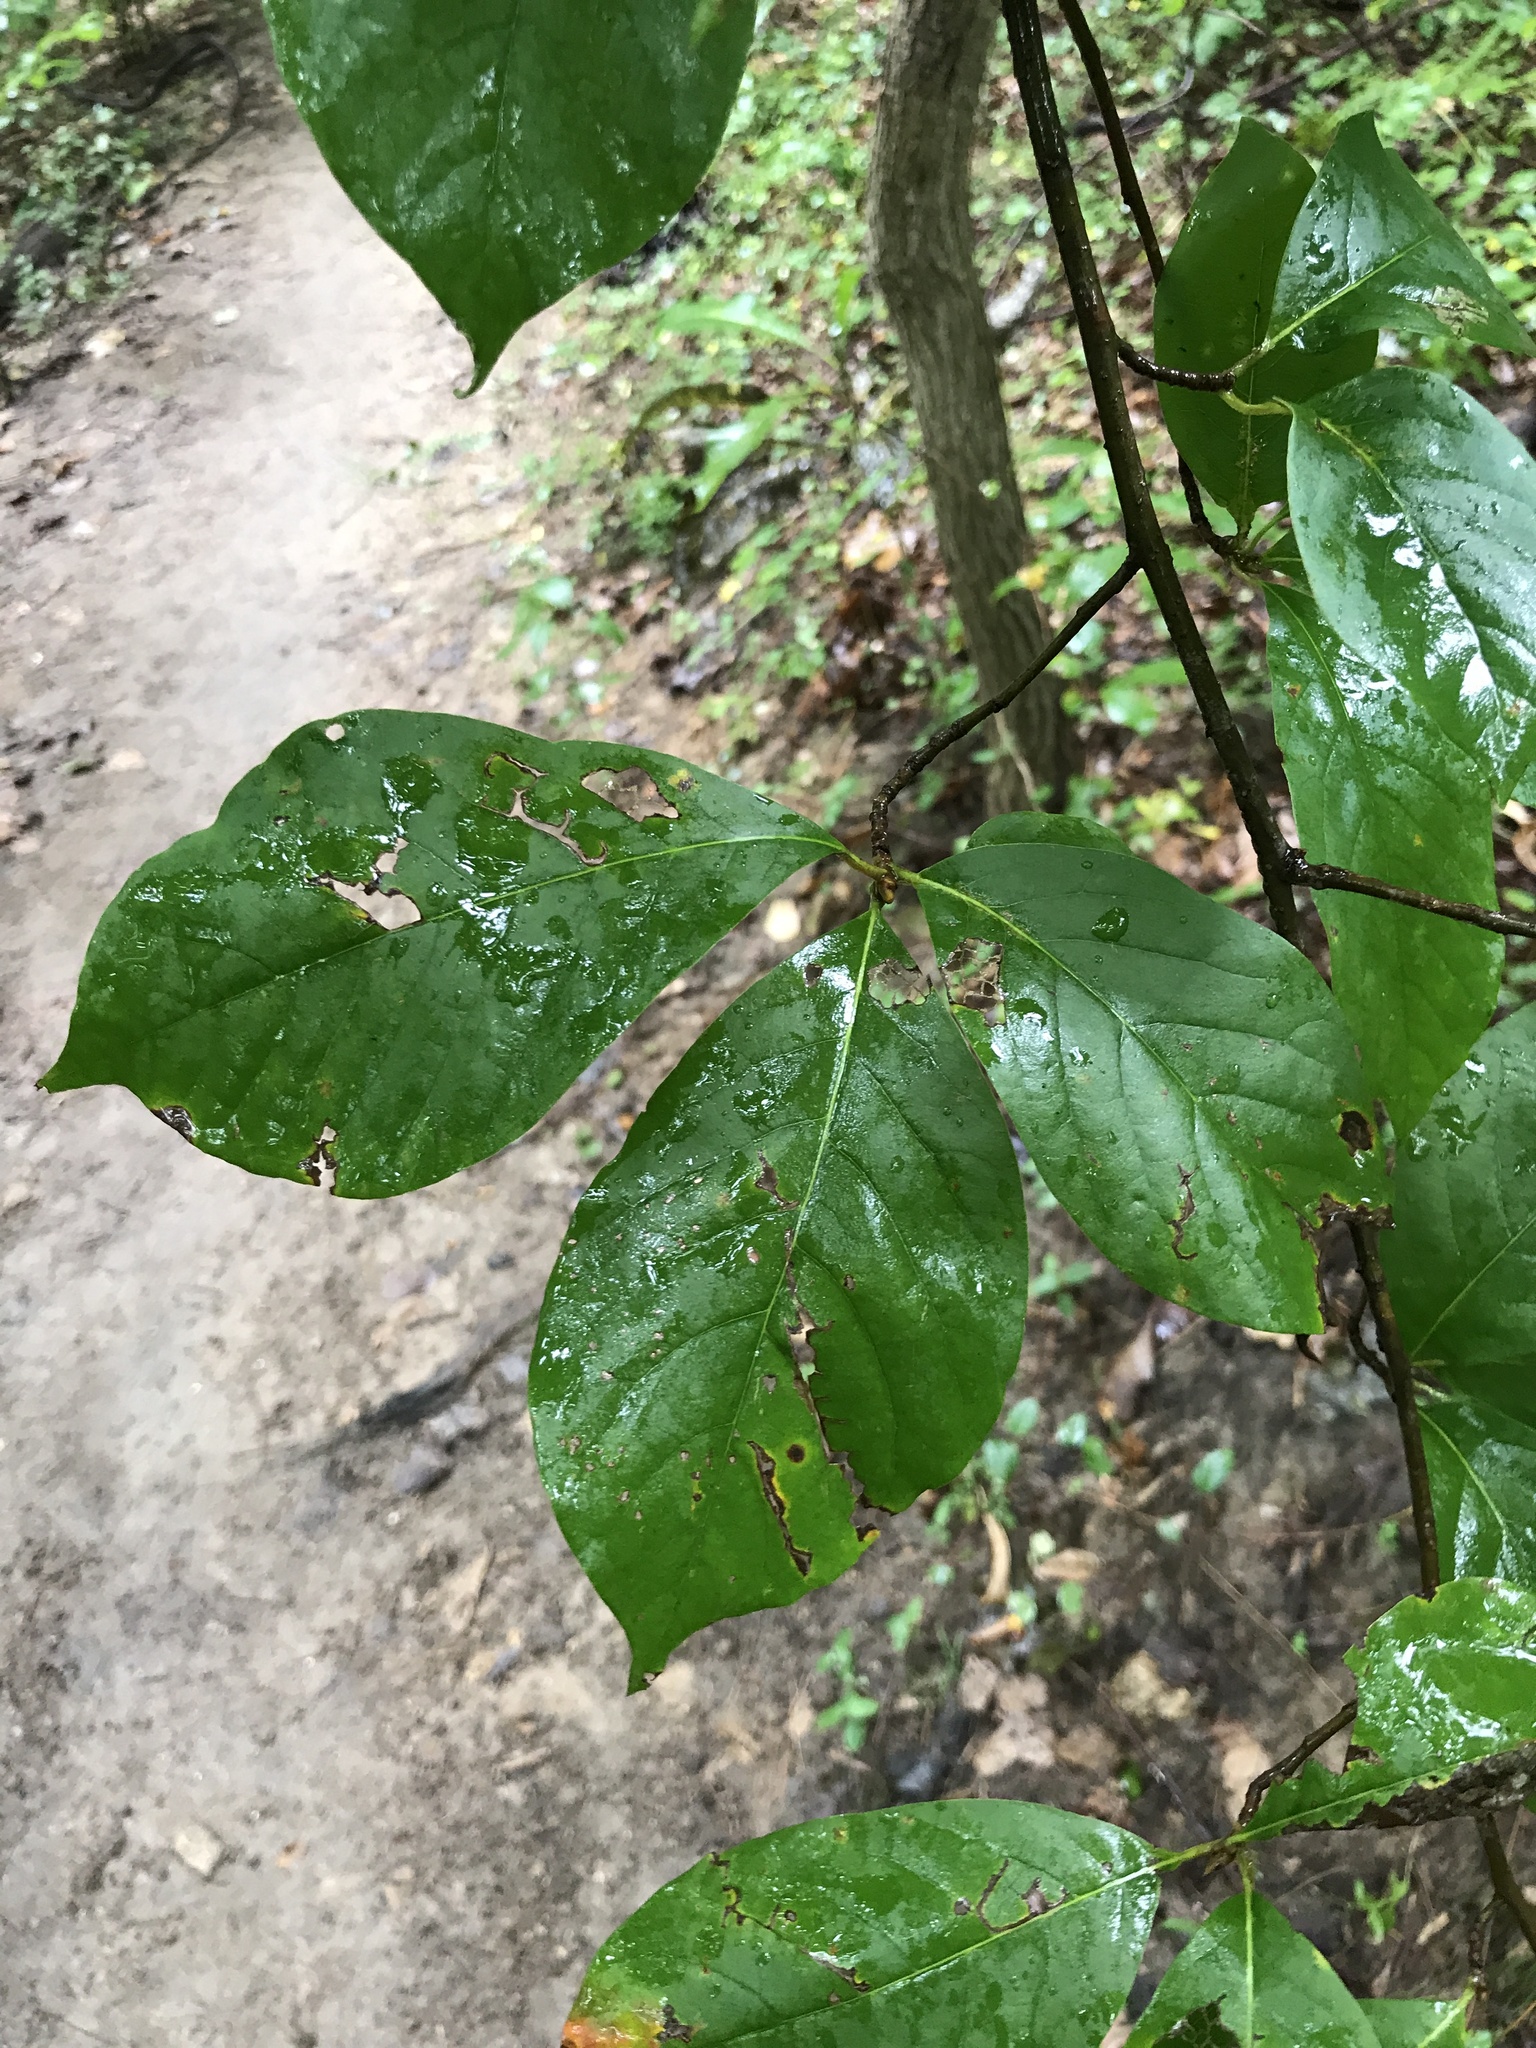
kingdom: Plantae
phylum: Tracheophyta
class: Magnoliopsida
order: Cornales
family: Nyssaceae
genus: Nyssa
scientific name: Nyssa sylvatica
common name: Black tupelo
